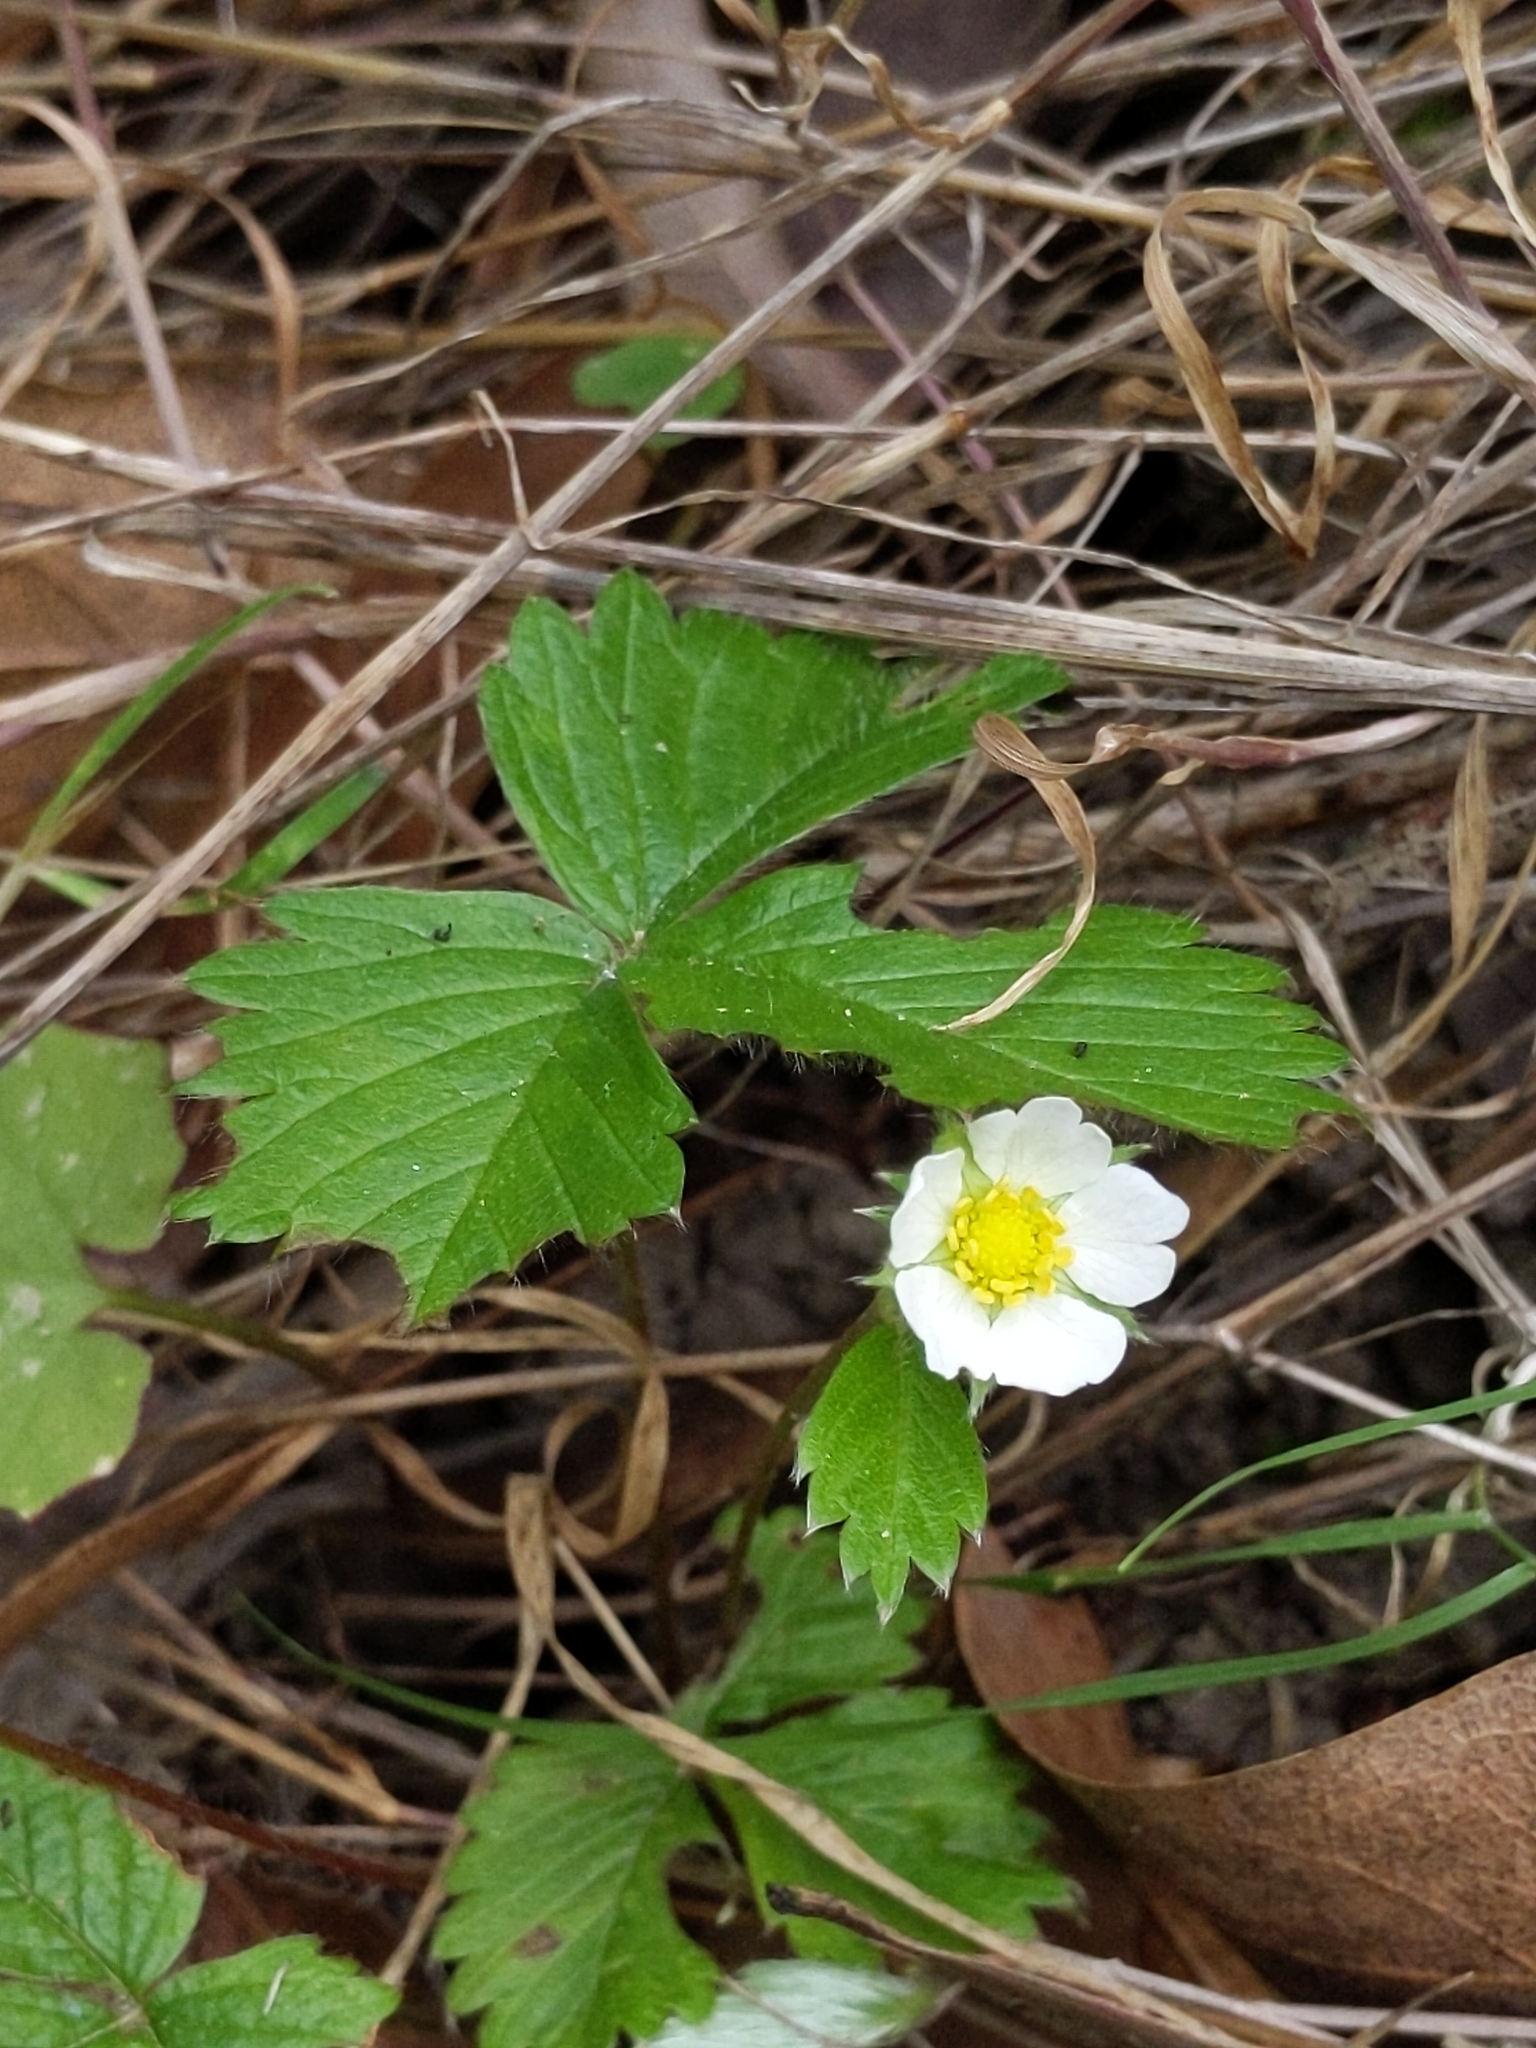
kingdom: Plantae
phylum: Tracheophyta
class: Magnoliopsida
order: Rosales
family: Rosaceae
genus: Fragaria
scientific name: Fragaria vesca
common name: Wild strawberry
